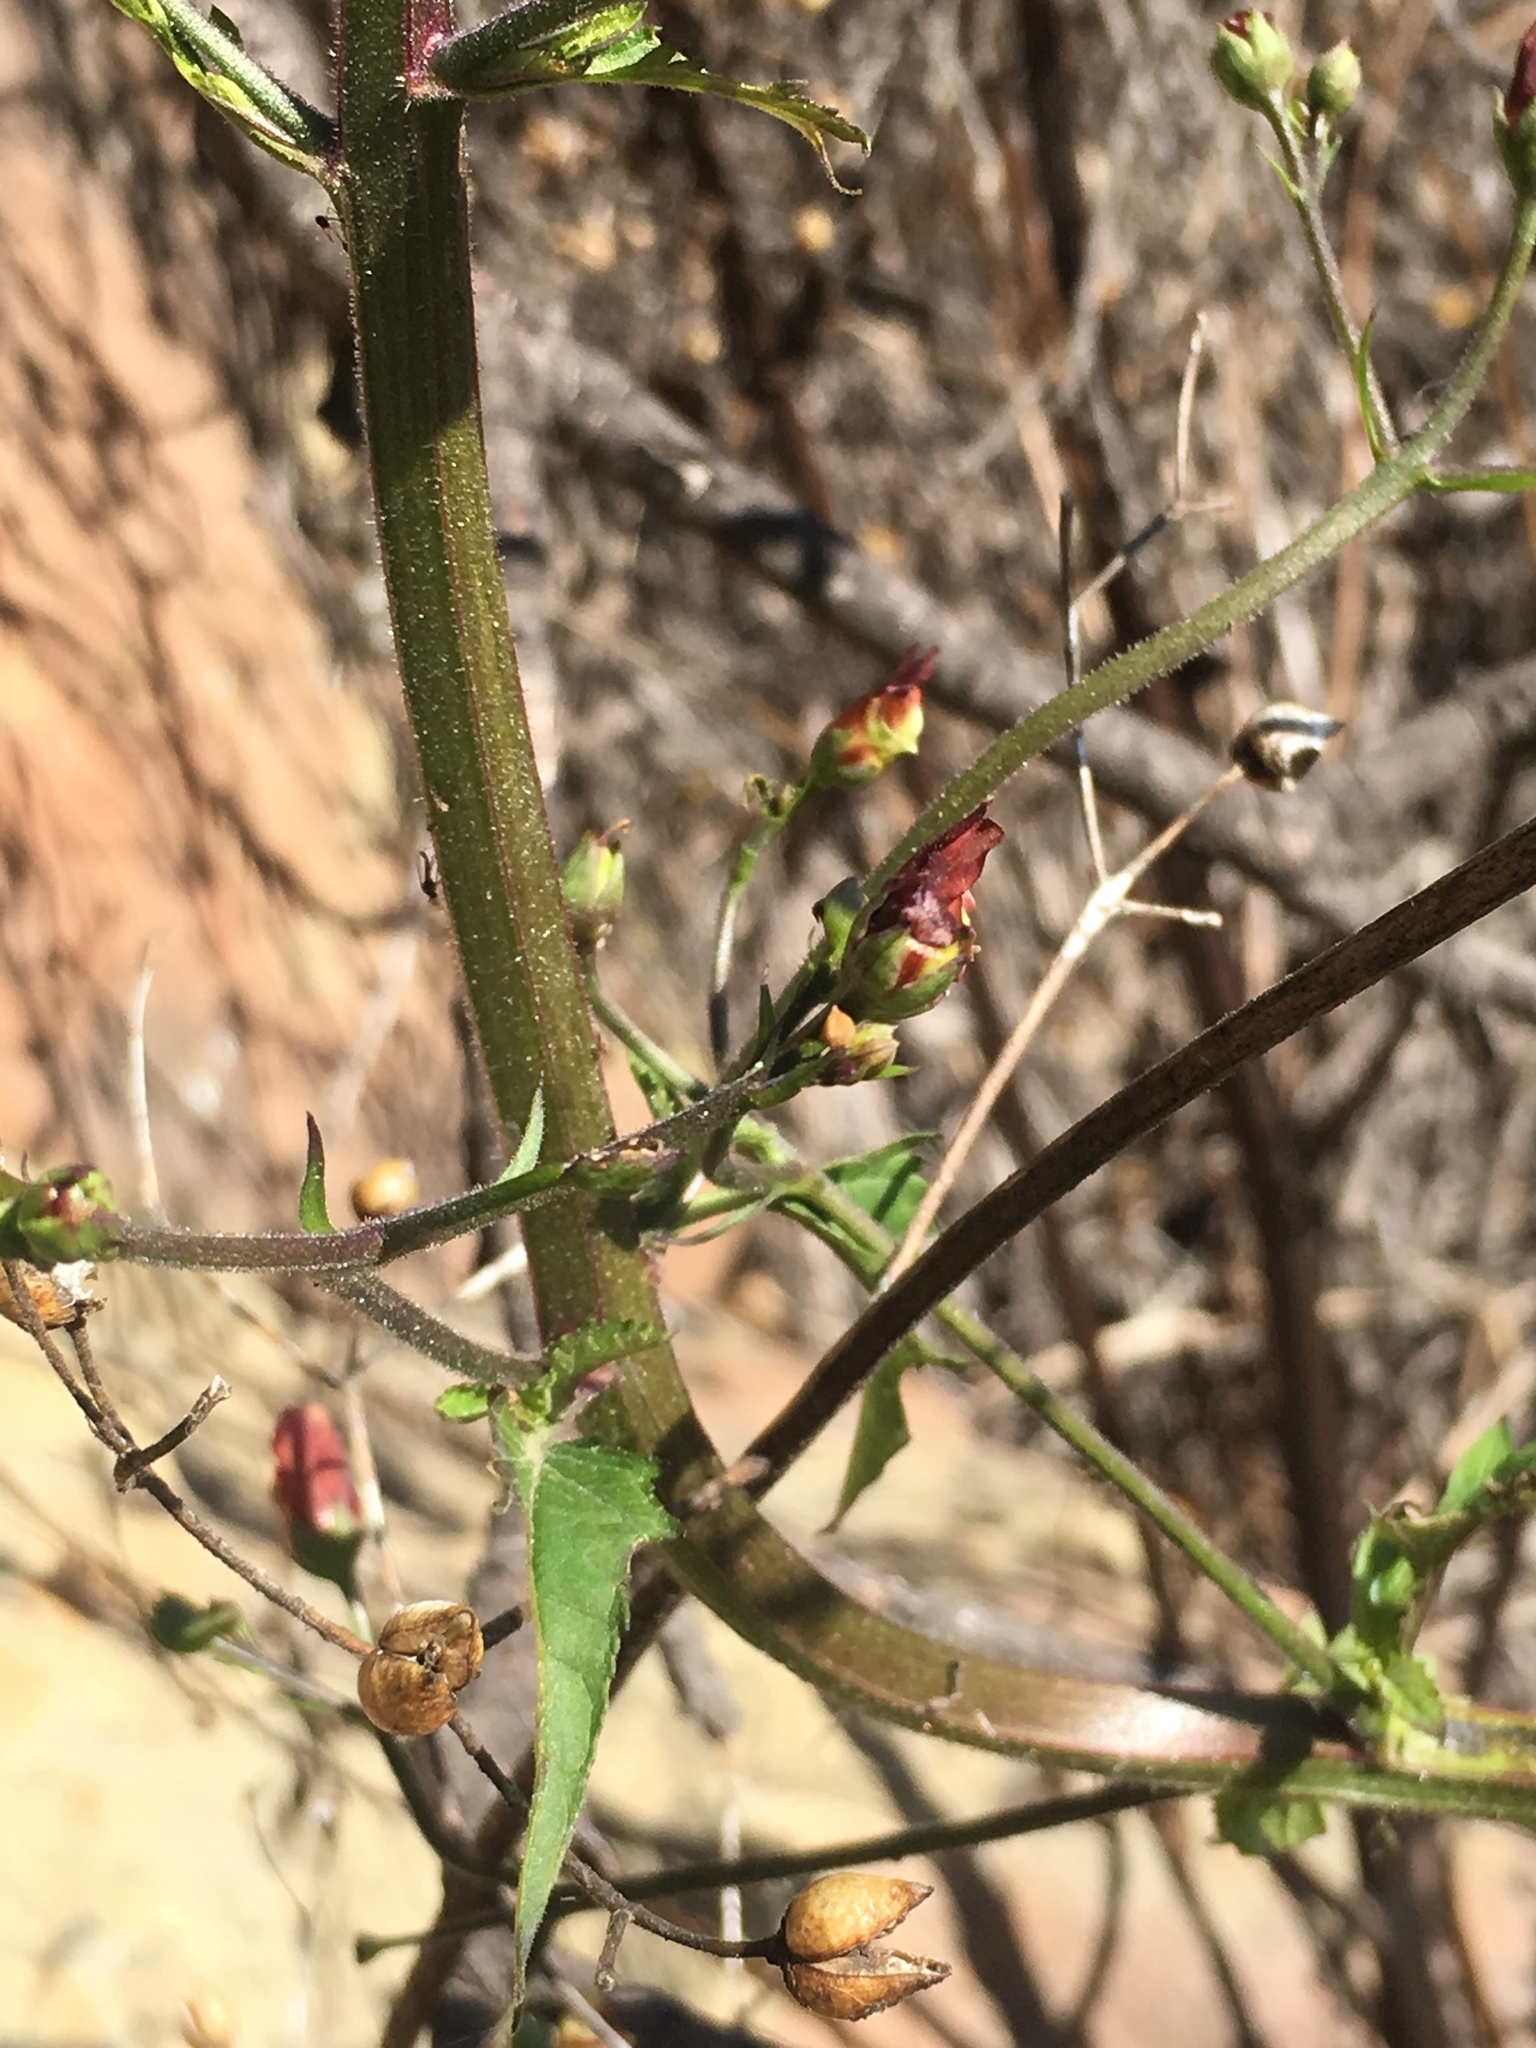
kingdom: Plantae
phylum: Tracheophyta
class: Magnoliopsida
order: Lamiales
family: Scrophulariaceae
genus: Scrophularia
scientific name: Scrophularia californica
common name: California figwort
